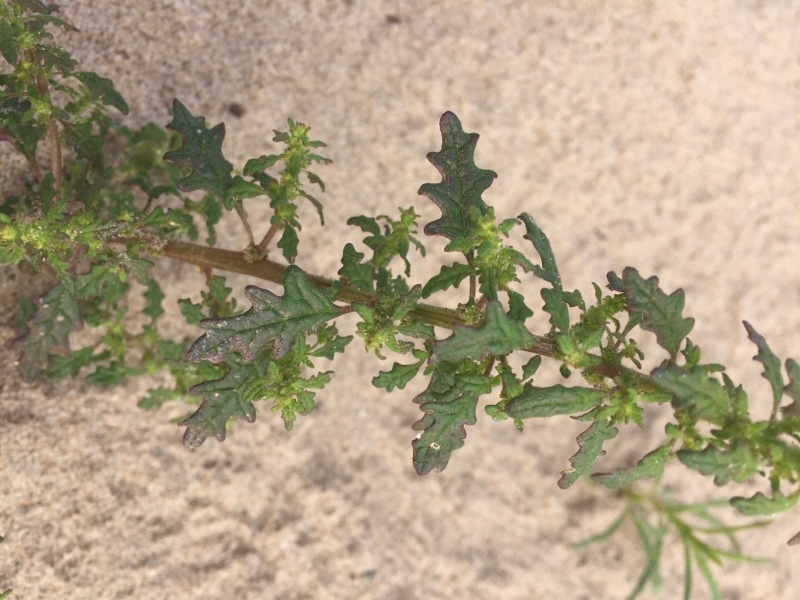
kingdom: Plantae
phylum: Tracheophyta
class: Magnoliopsida
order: Caryophyllales
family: Amaranthaceae
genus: Dysphania
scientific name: Dysphania pumilio
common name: Clammy goosefoot
